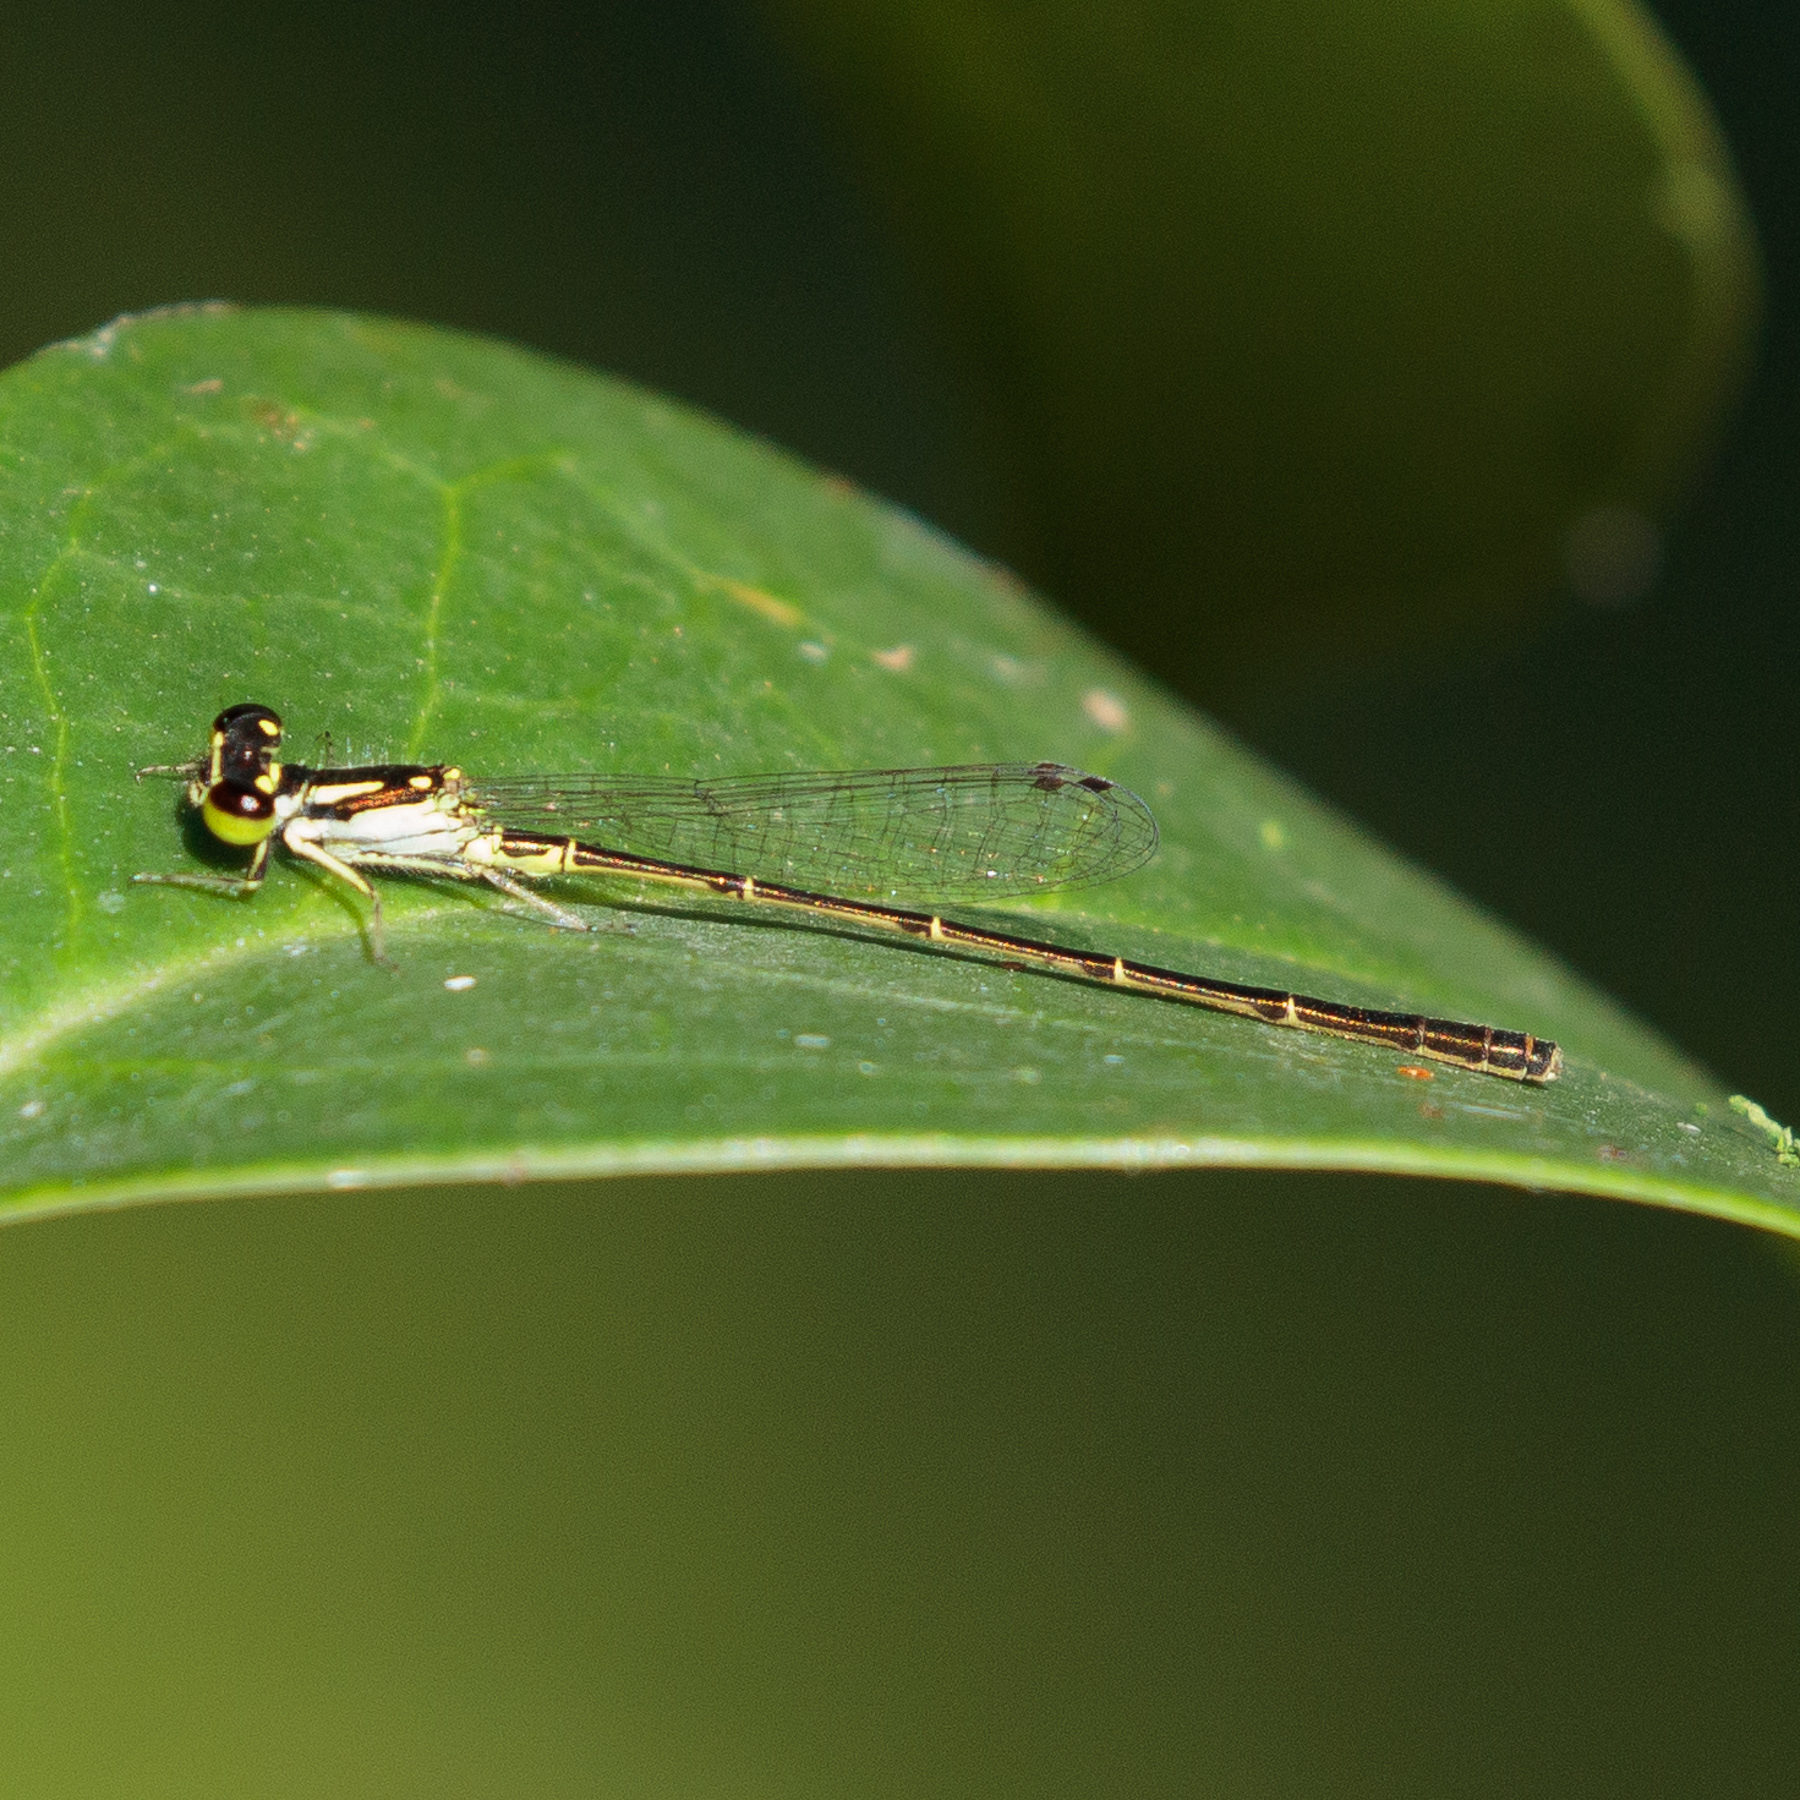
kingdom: Animalia
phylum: Arthropoda
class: Insecta
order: Odonata
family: Coenagrionidae
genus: Ischnura
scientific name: Ischnura posita
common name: Fragile forktail
